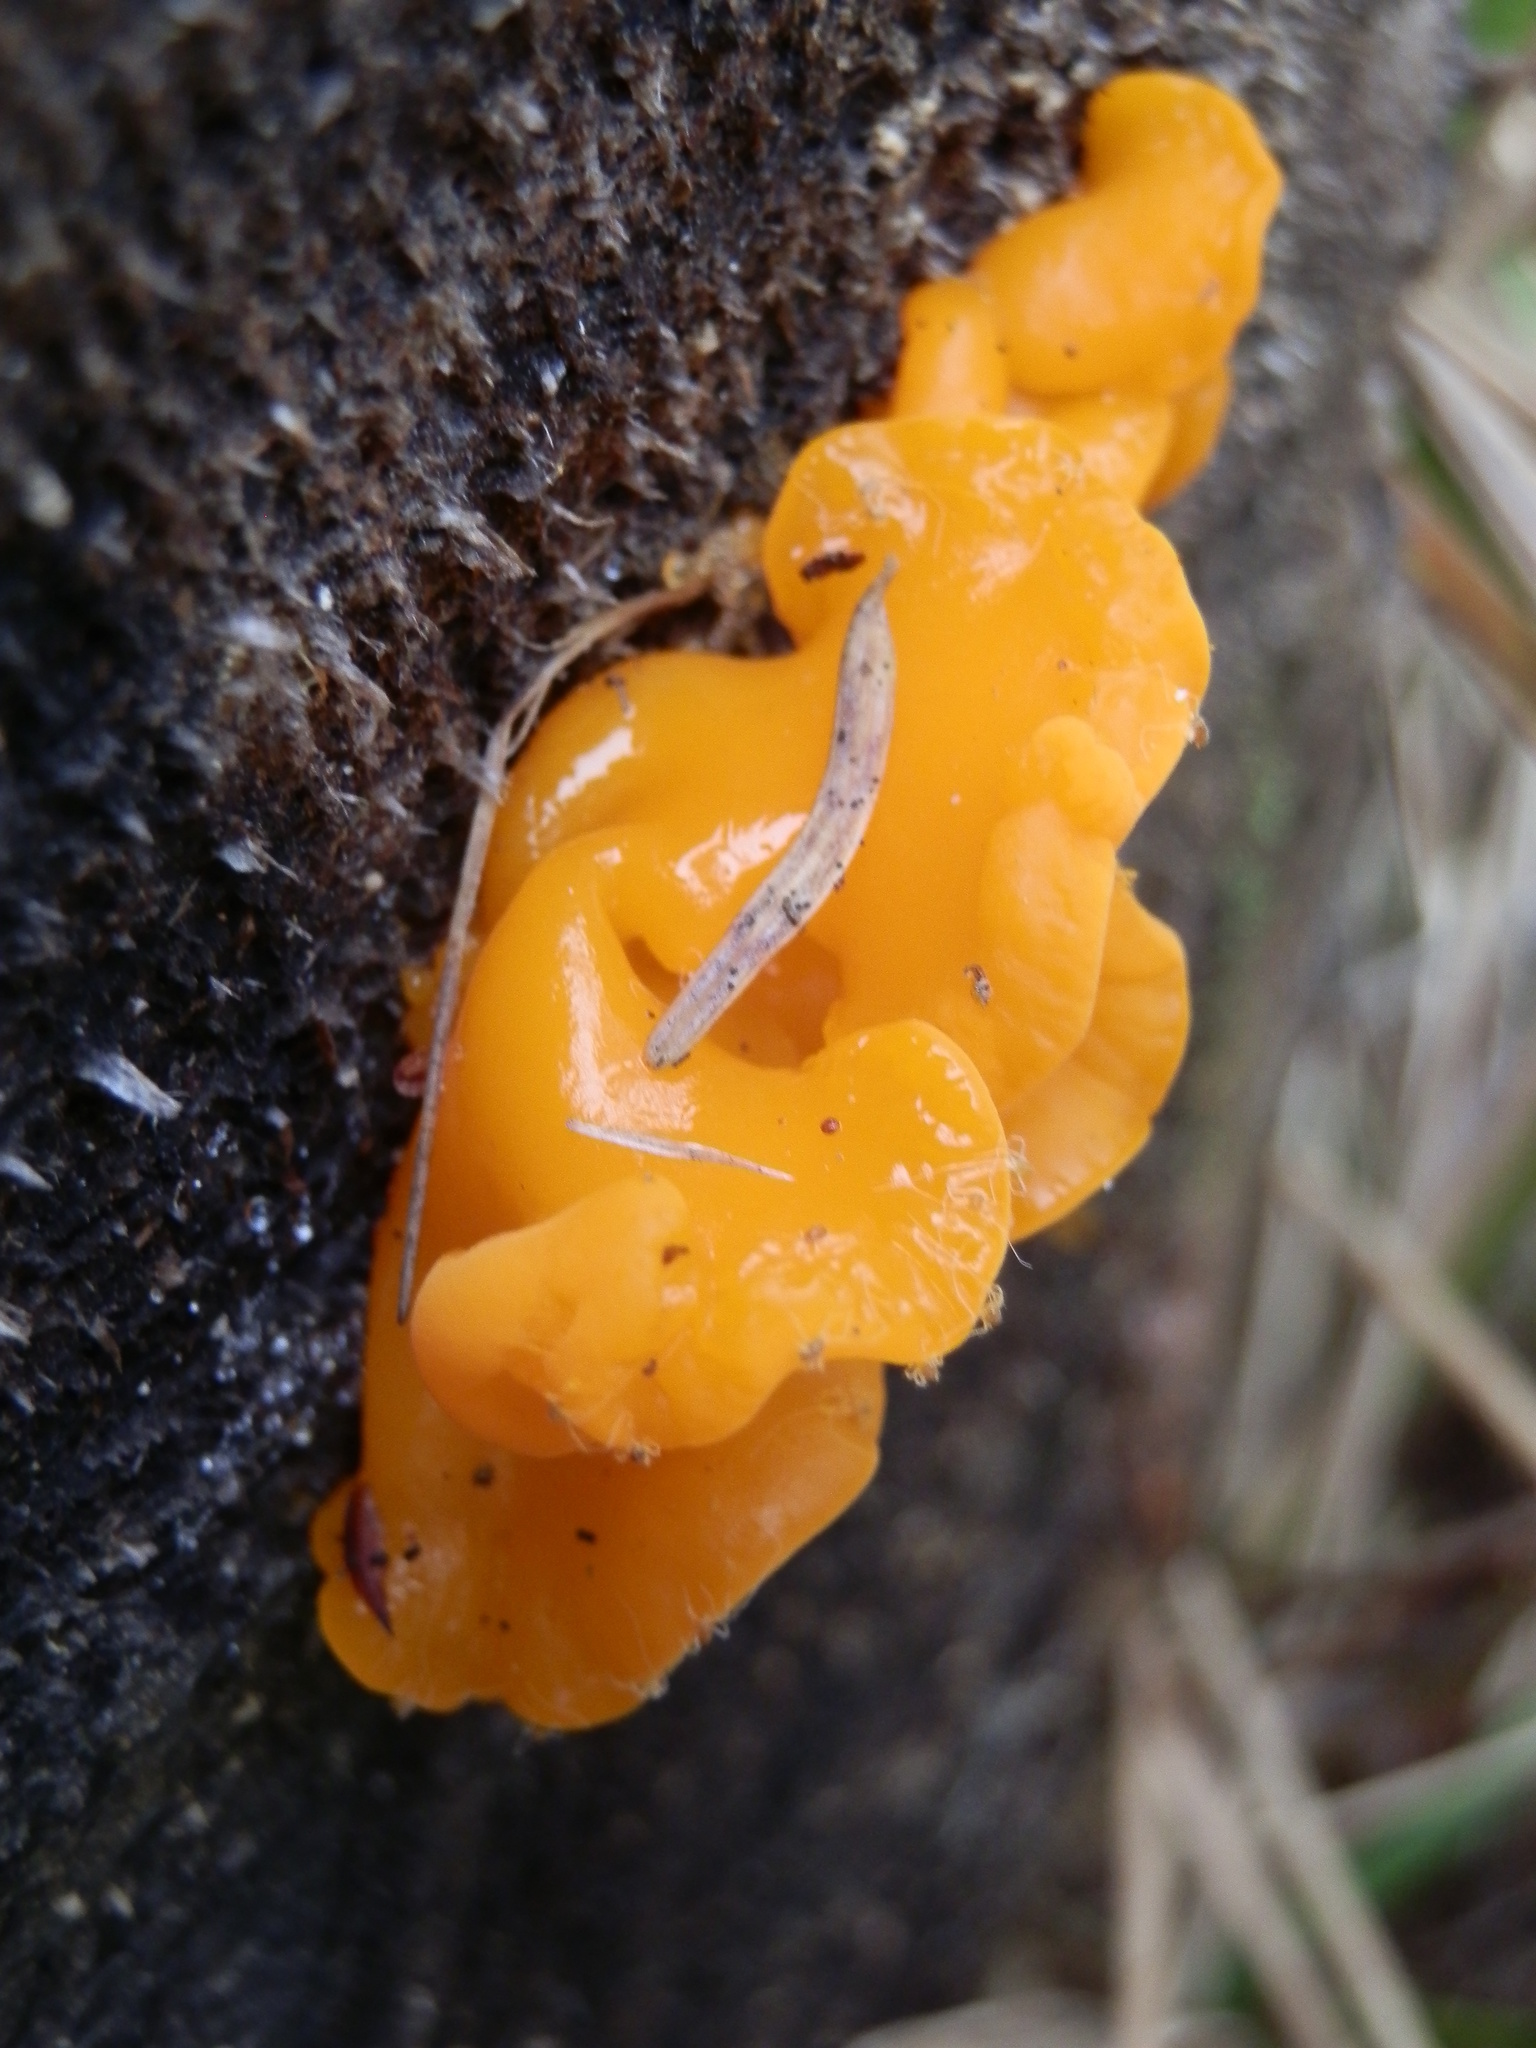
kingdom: Fungi
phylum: Basidiomycota
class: Tremellomycetes
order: Tremellales
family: Naemateliaceae
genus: Naematelia
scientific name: Naematelia aurantia
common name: Golden ear
